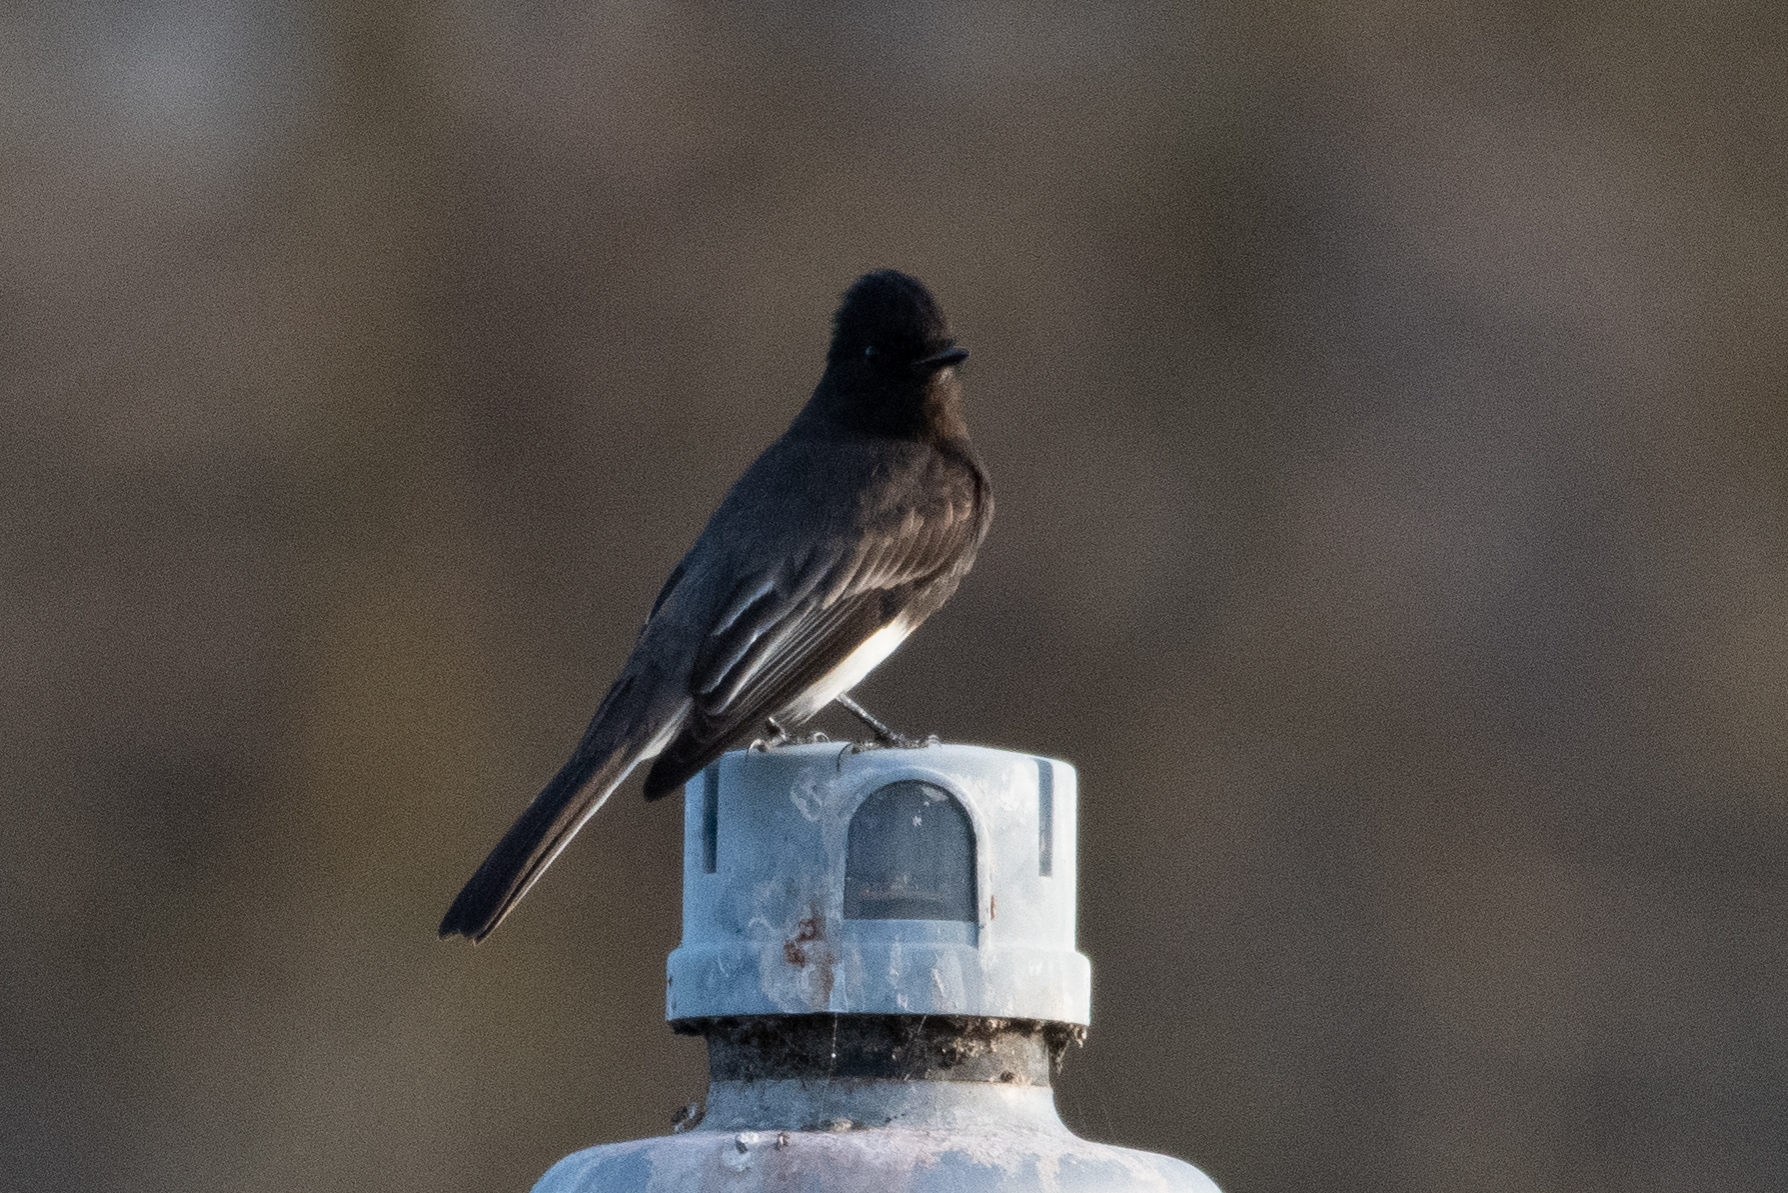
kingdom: Animalia
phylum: Chordata
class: Aves
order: Passeriformes
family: Tyrannidae
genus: Sayornis
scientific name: Sayornis nigricans
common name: Black phoebe
